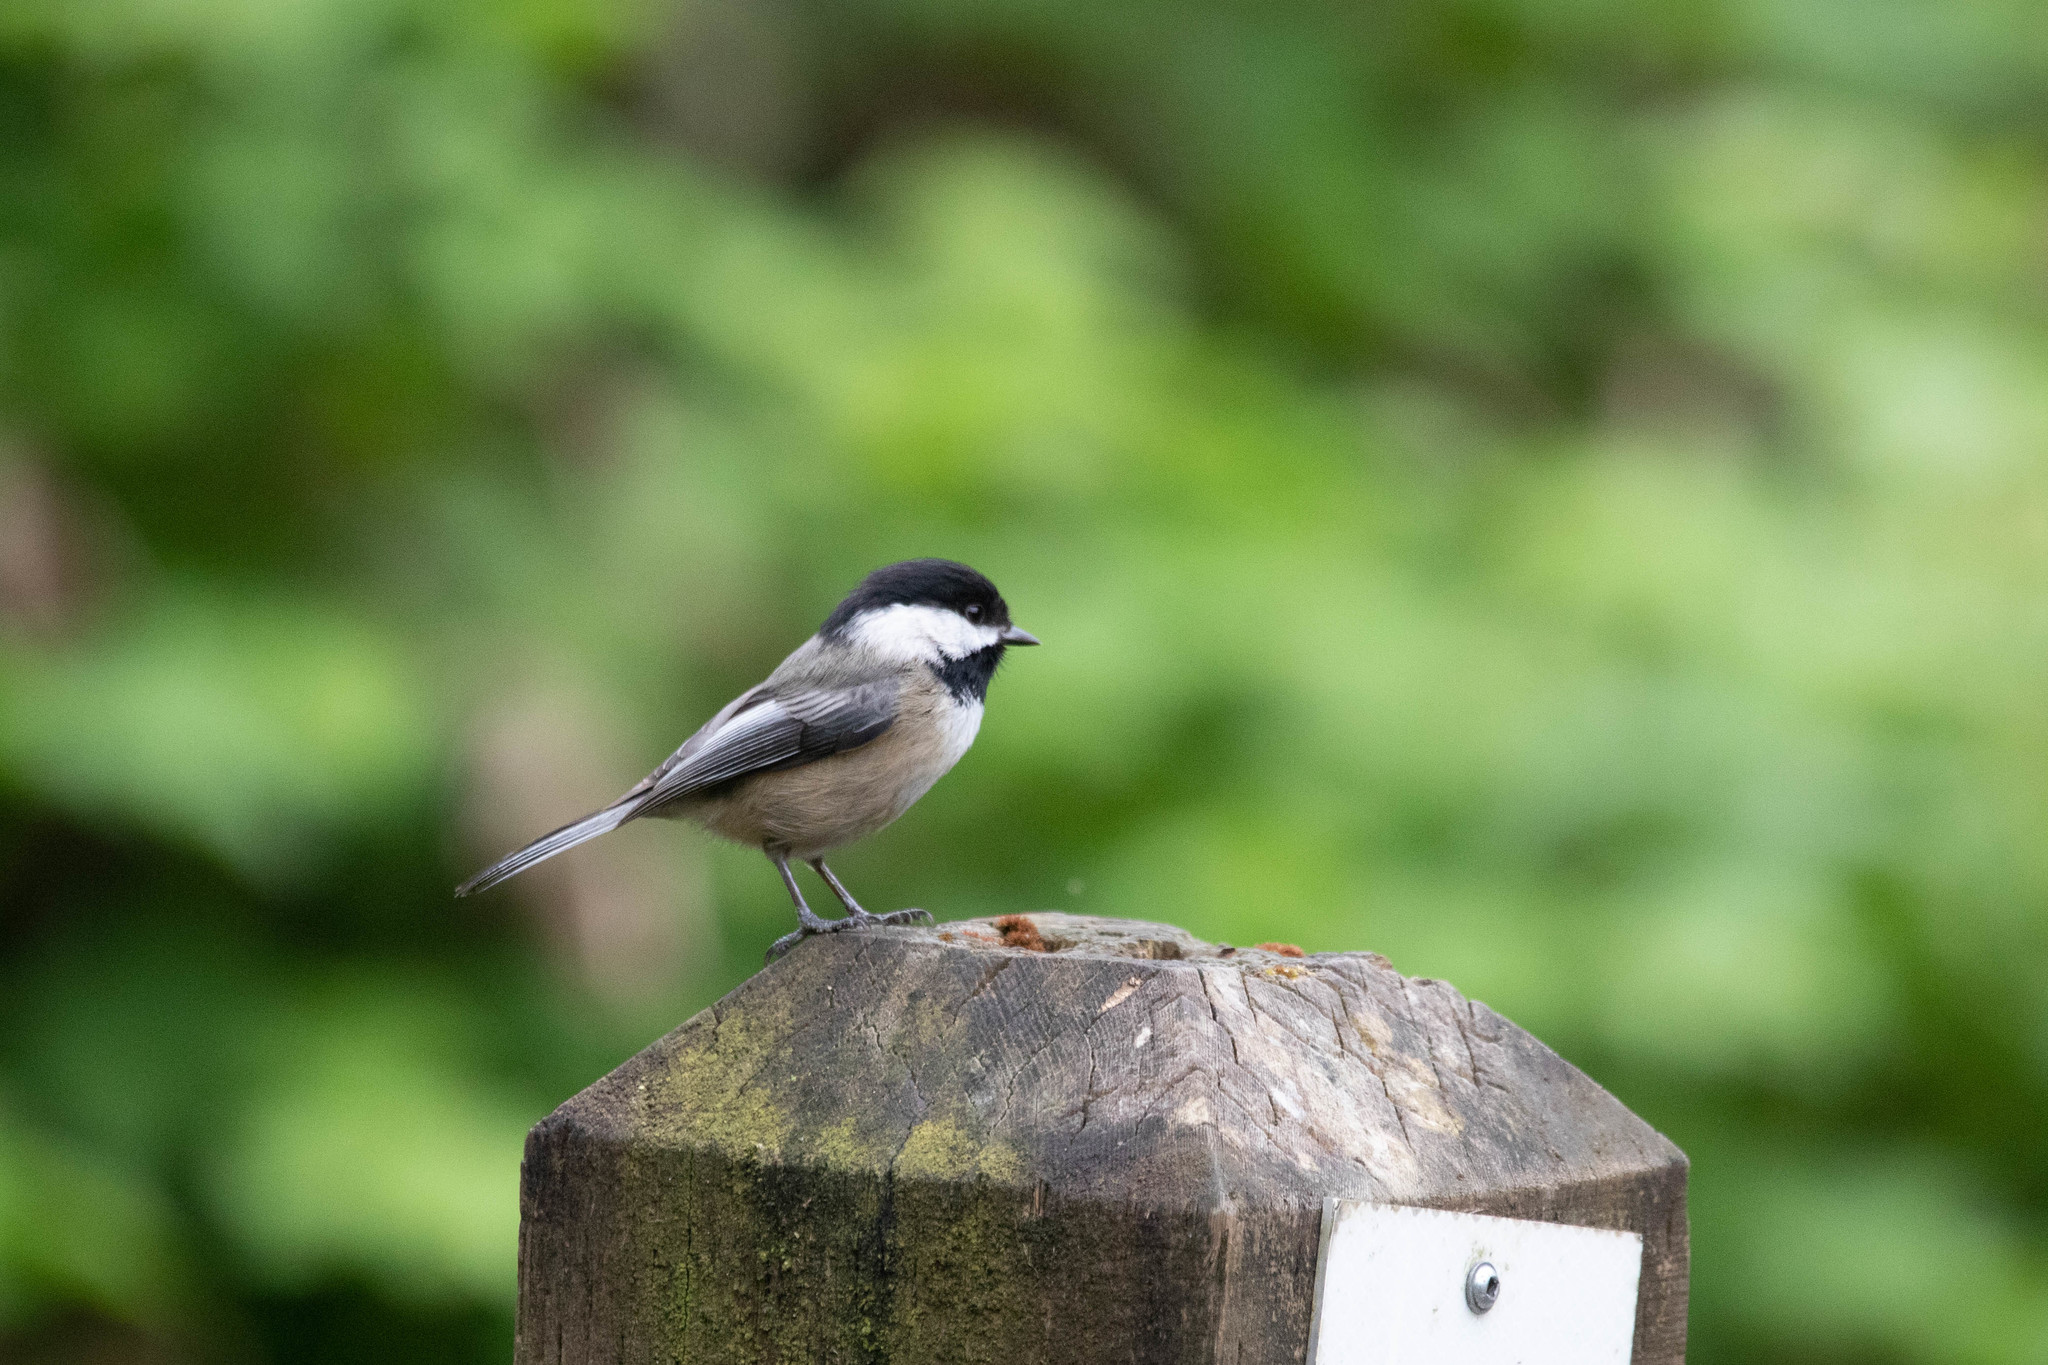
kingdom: Animalia
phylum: Chordata
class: Aves
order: Passeriformes
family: Paridae
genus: Poecile
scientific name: Poecile atricapillus
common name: Black-capped chickadee
